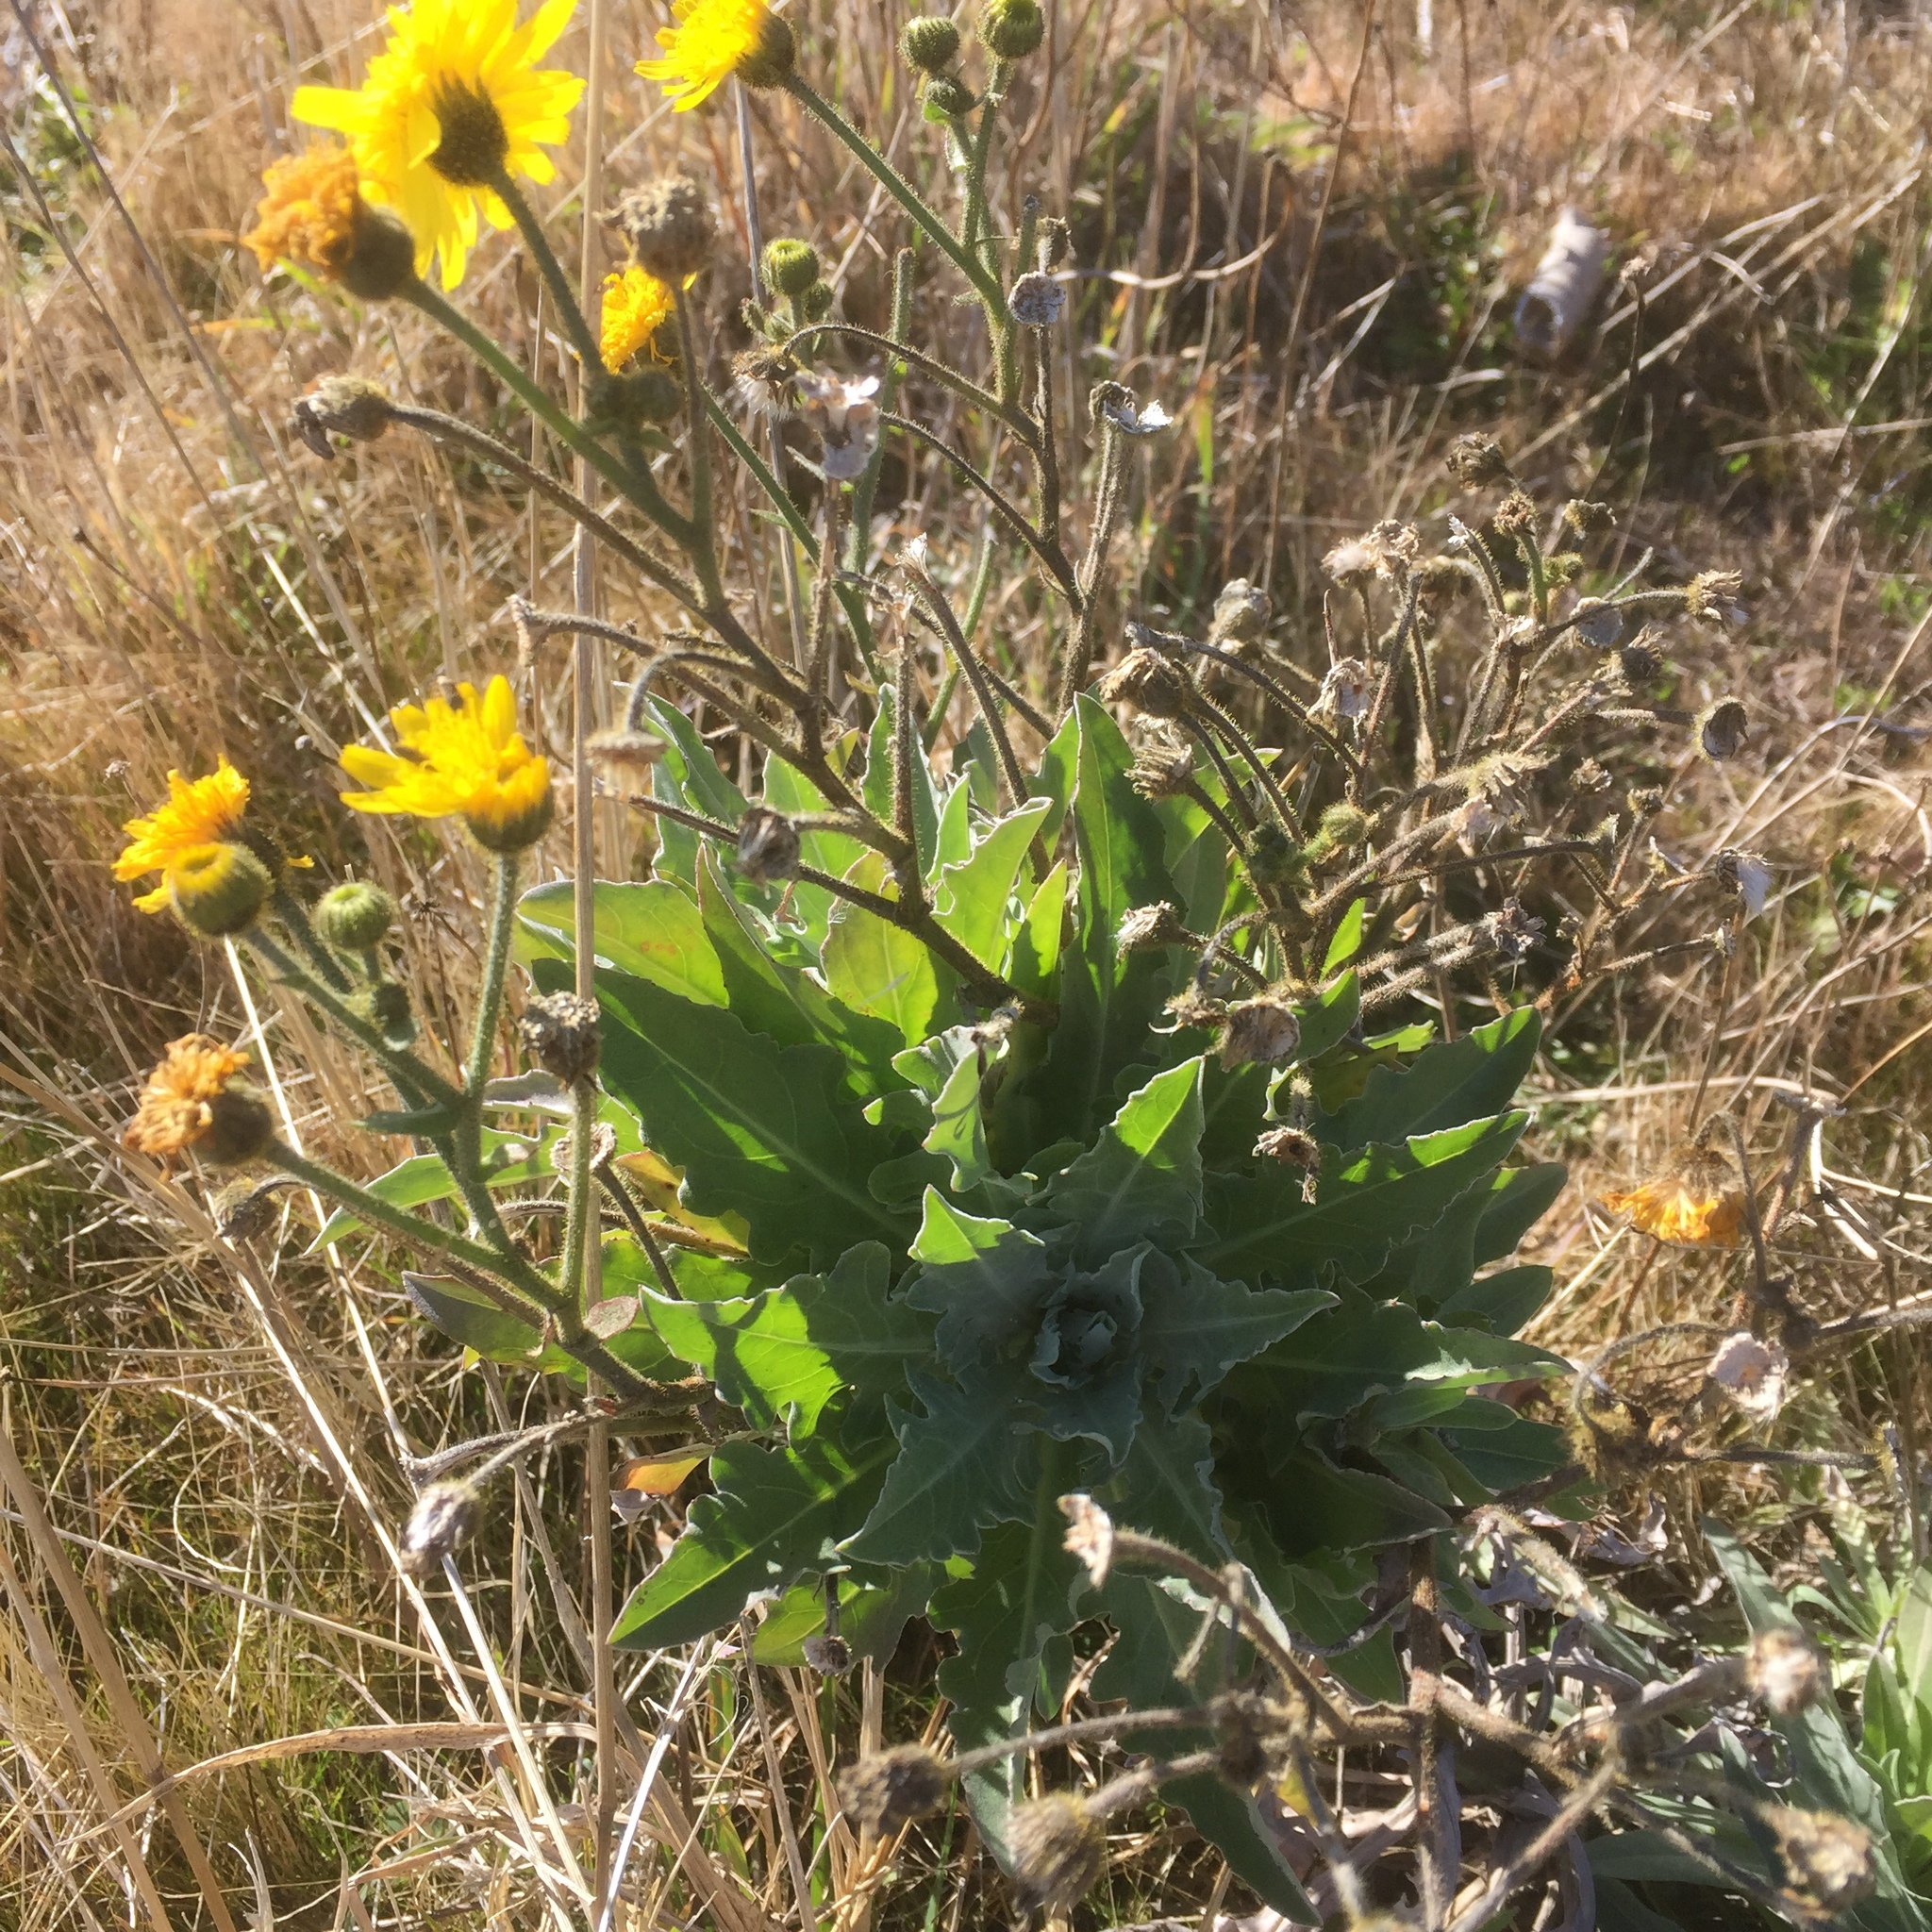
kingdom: Plantae
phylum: Tracheophyta
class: Magnoliopsida
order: Asterales
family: Asteraceae
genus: Andryala
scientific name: Andryala glandulosa
